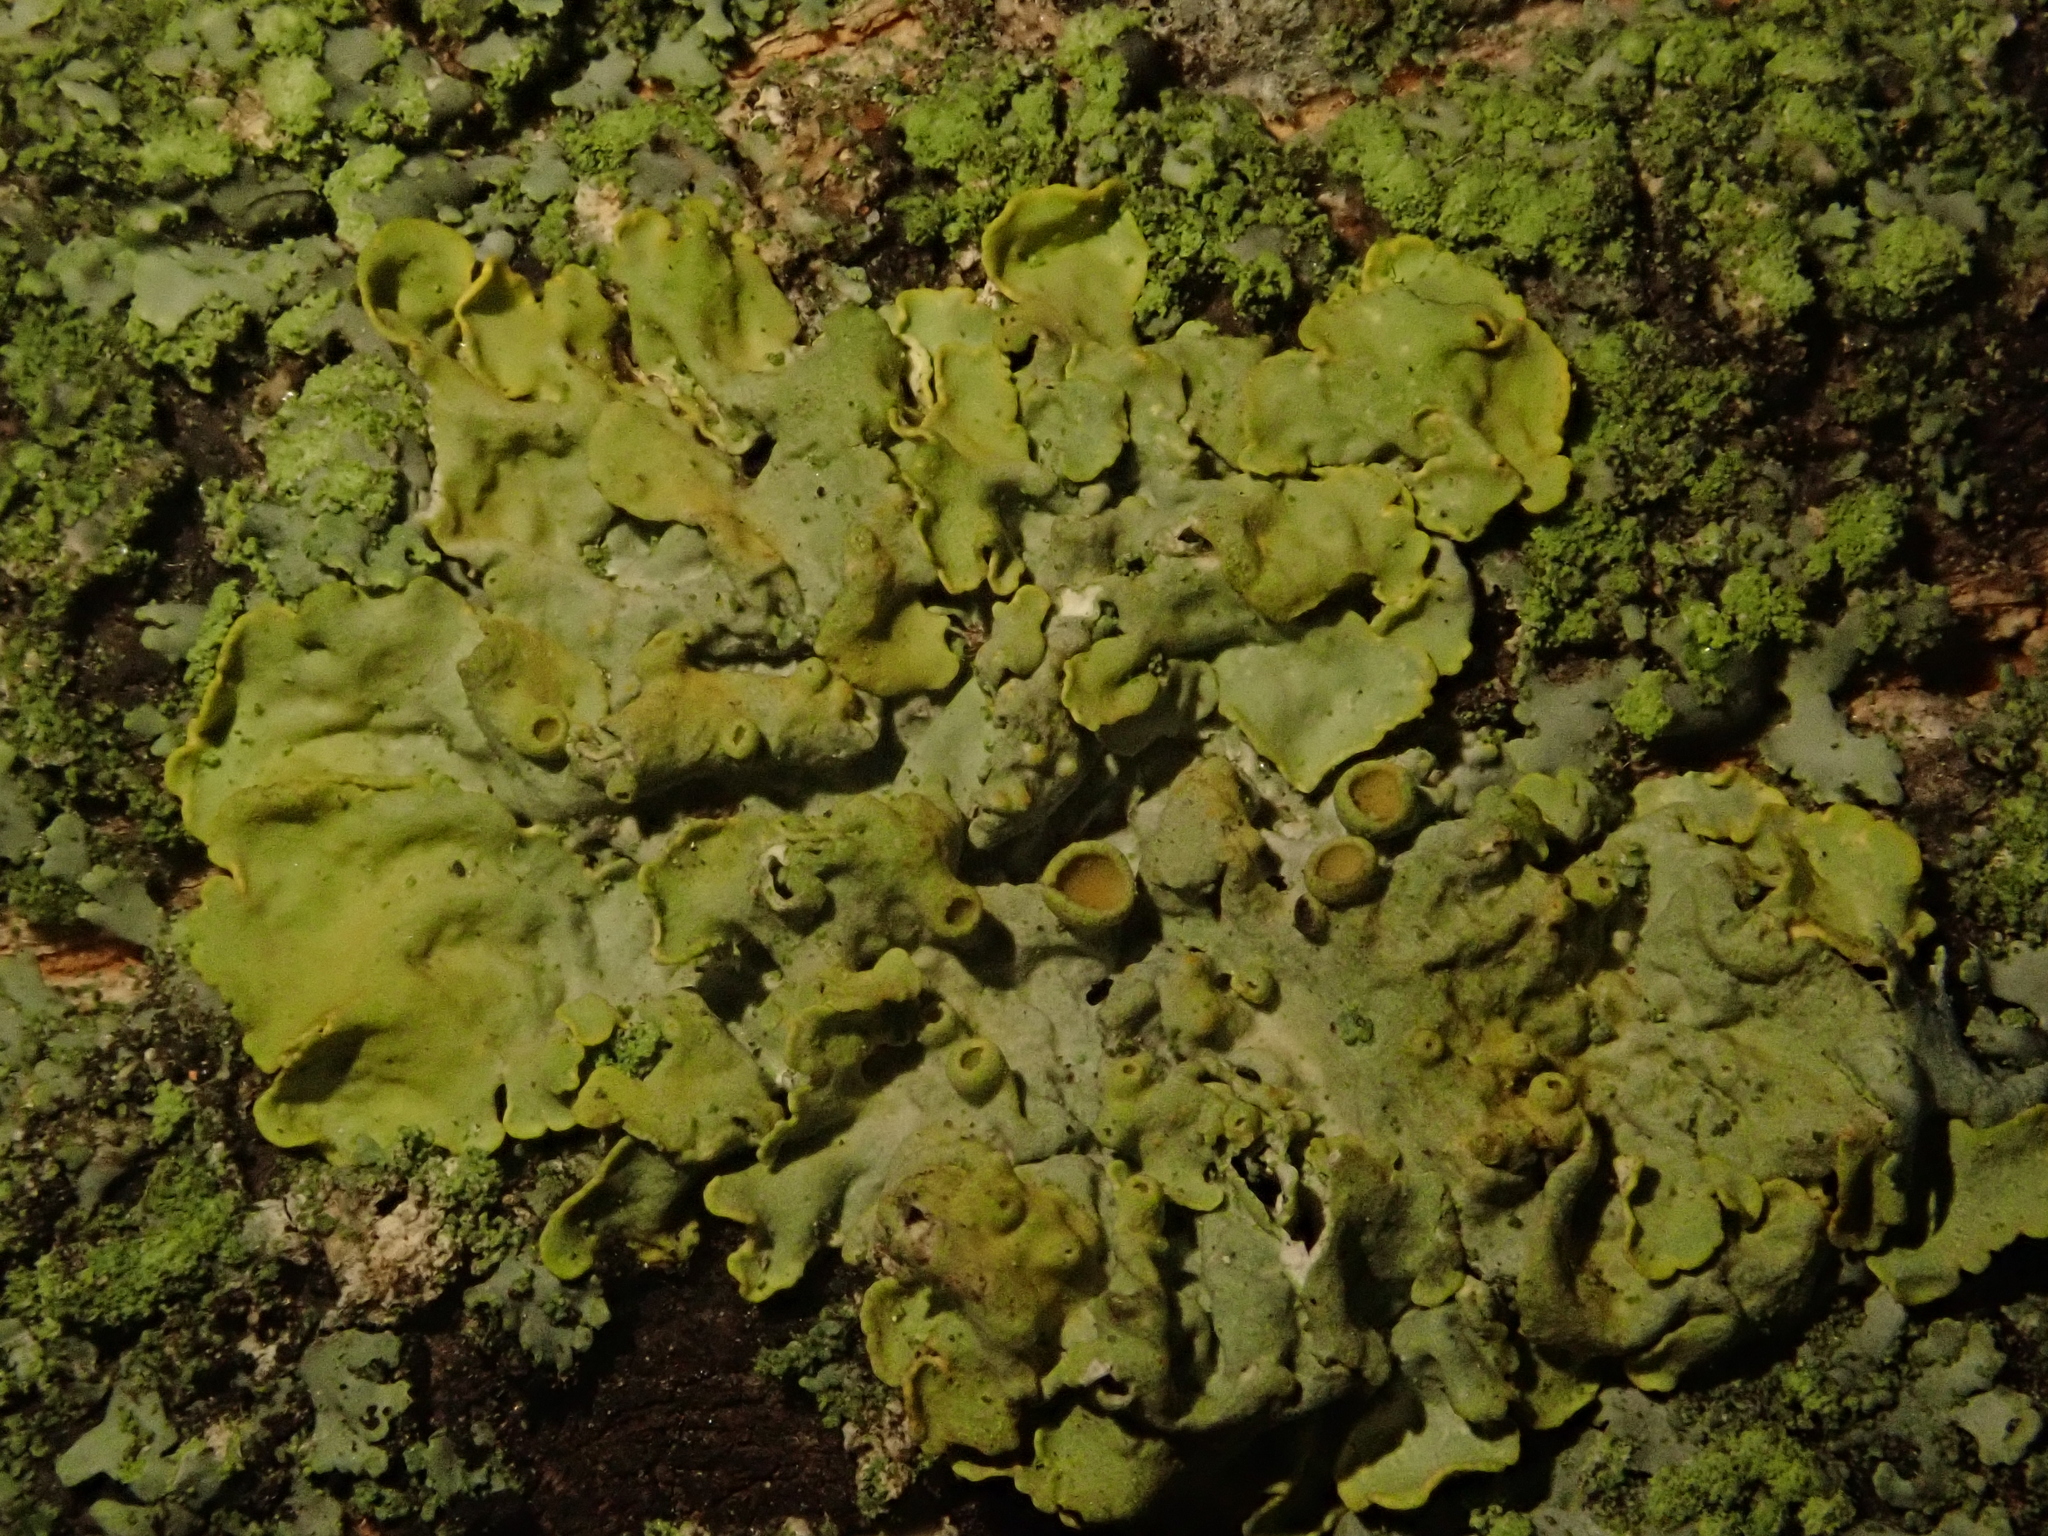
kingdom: Fungi
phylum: Ascomycota
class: Lecanoromycetes
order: Teloschistales
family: Teloschistaceae
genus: Xanthoria
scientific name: Xanthoria parietina
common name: Common orange lichen
